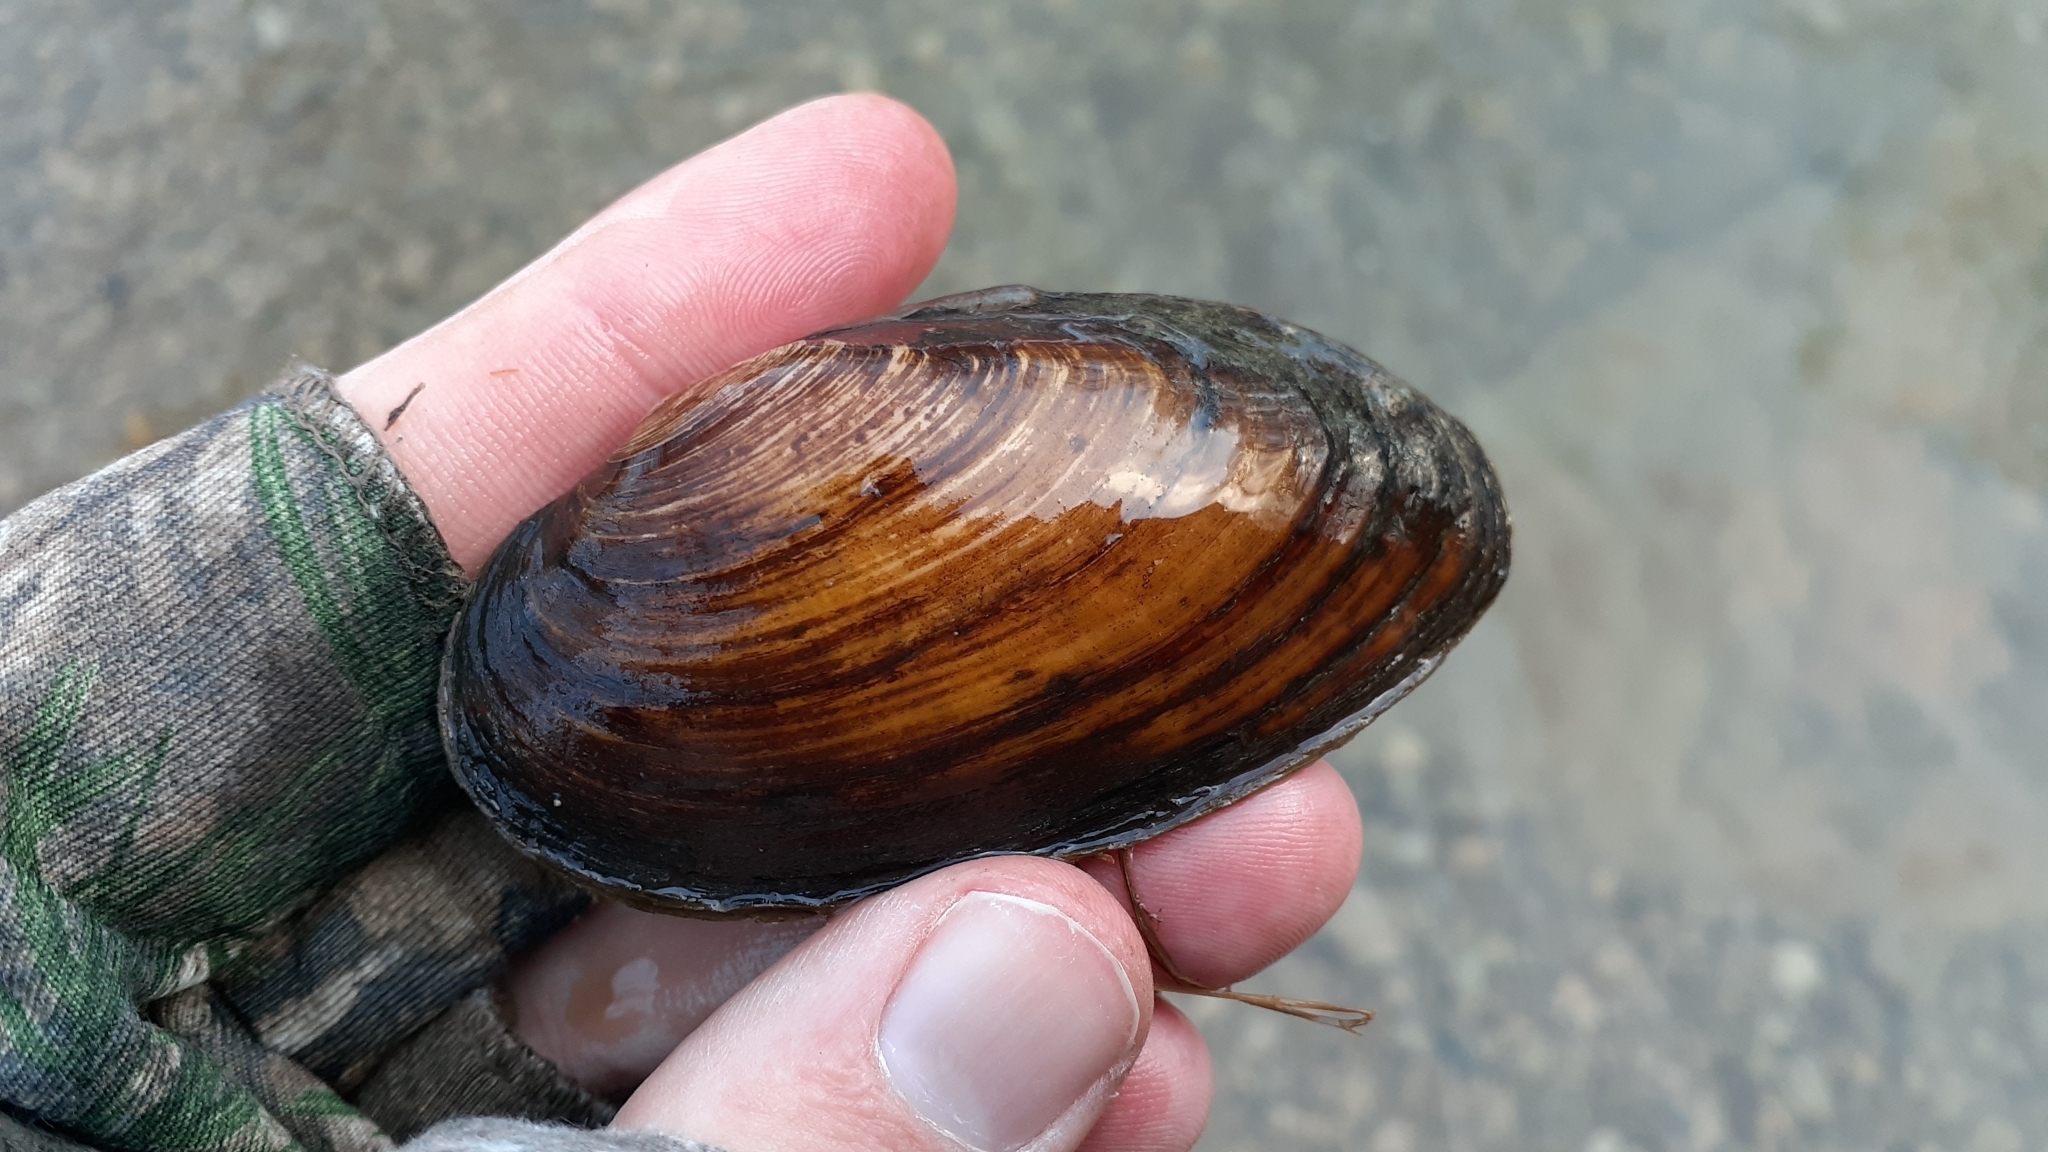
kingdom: Animalia
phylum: Mollusca
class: Bivalvia
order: Unionida
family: Unionidae
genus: Eurynia
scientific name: Eurynia dilatata
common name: Spike
